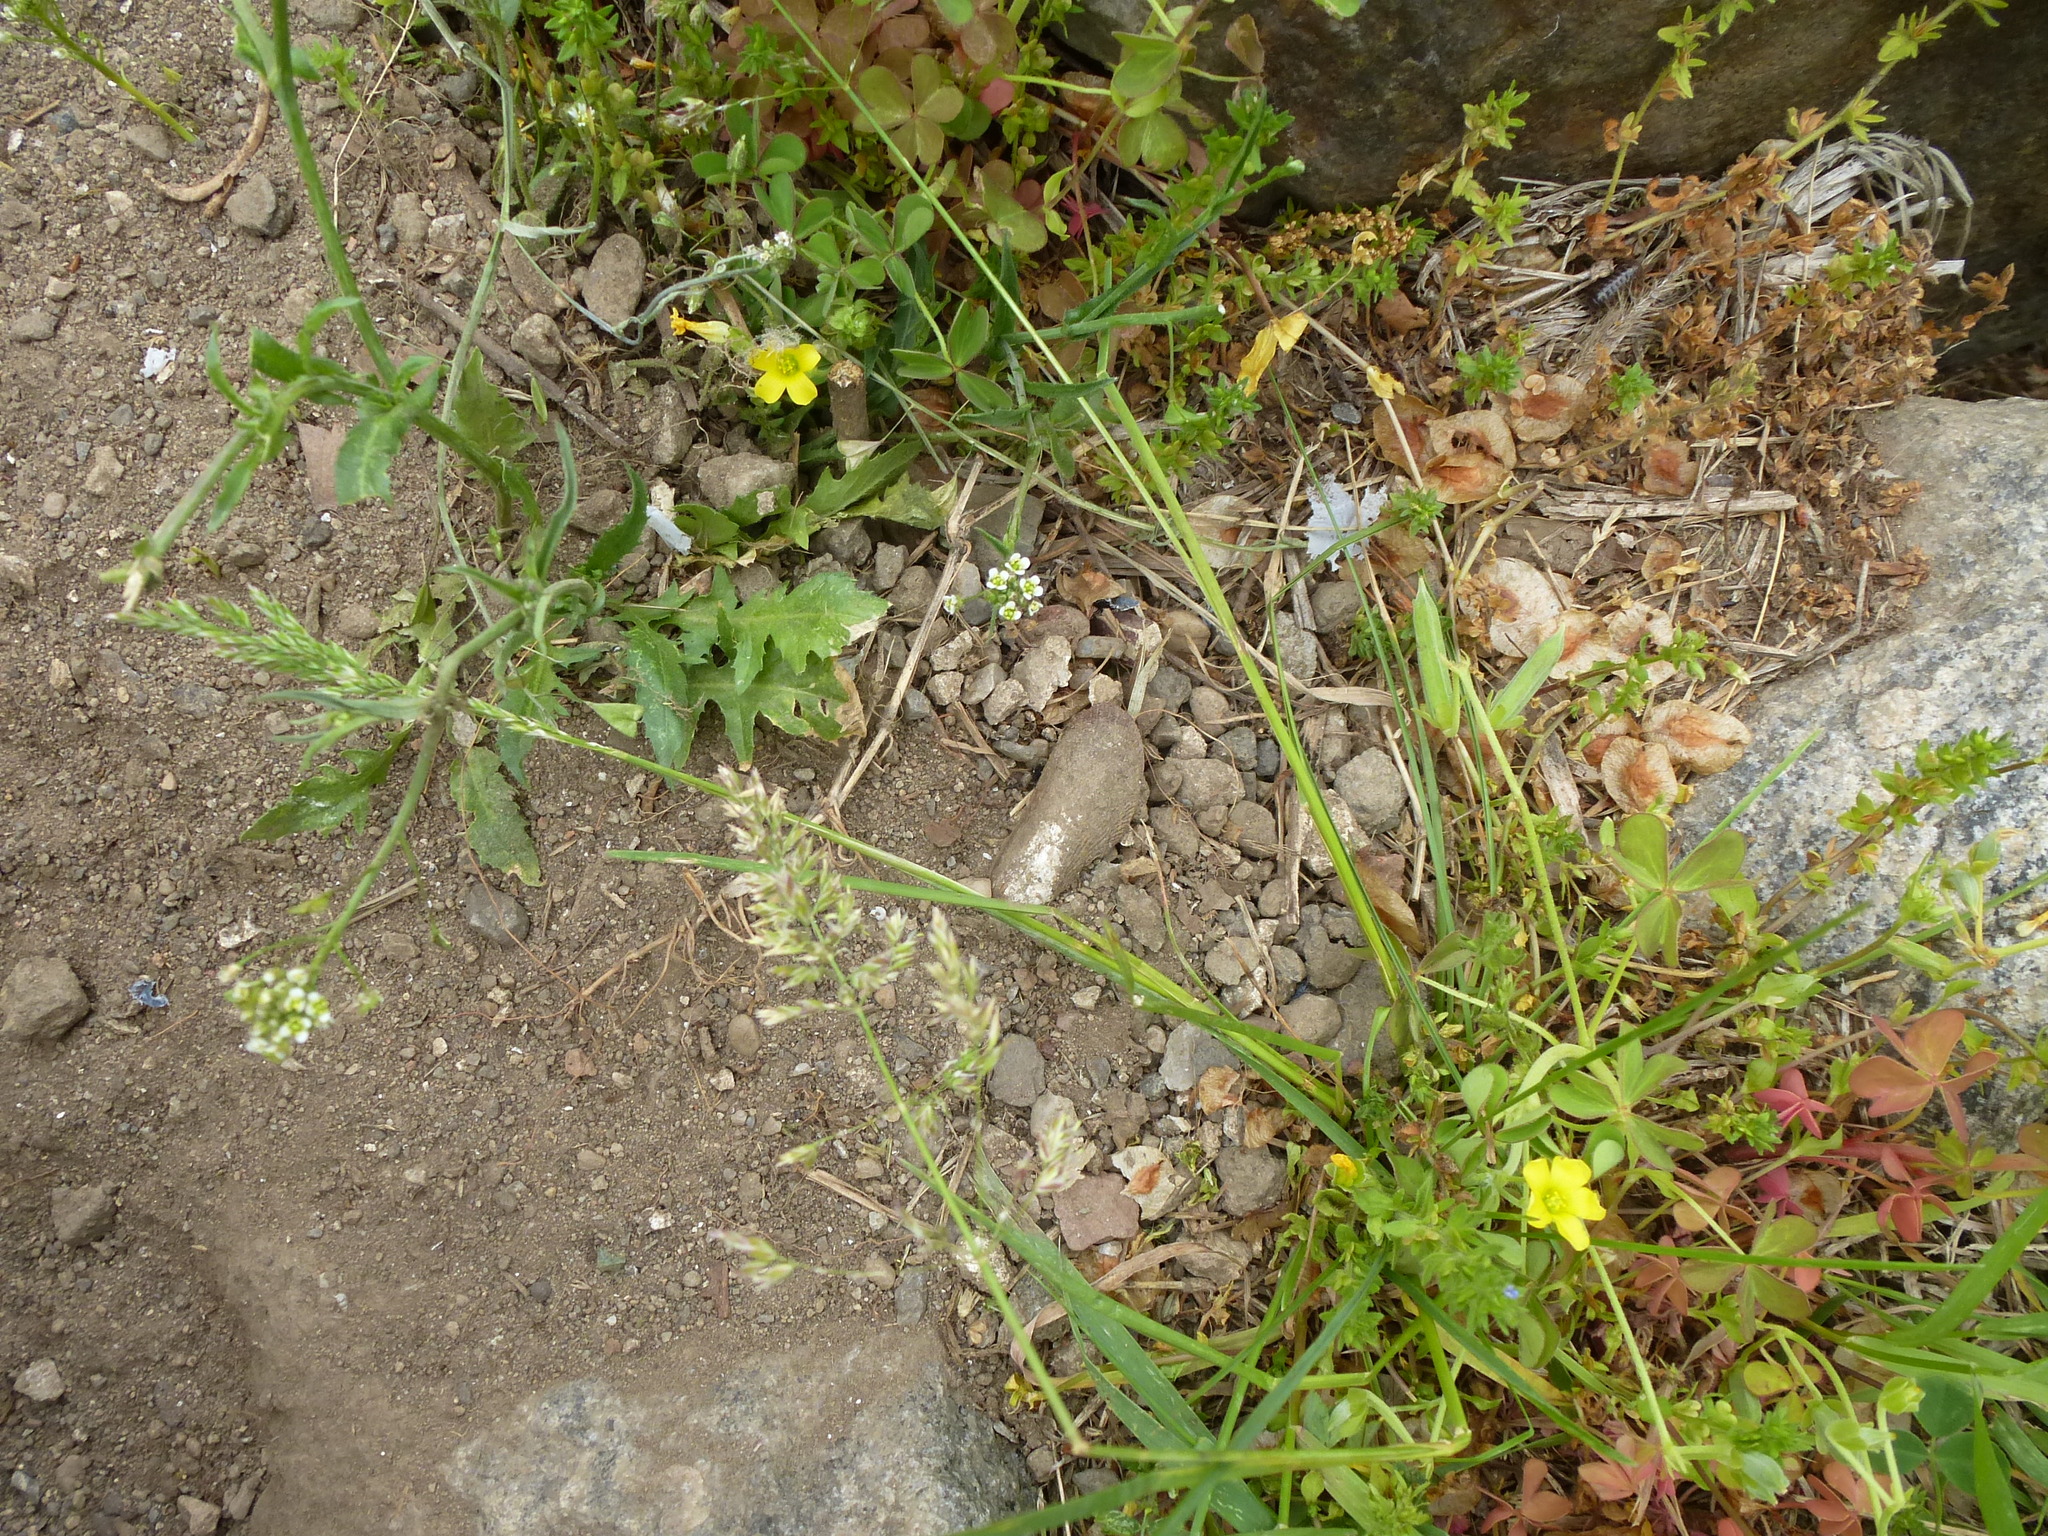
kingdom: Animalia
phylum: Mollusca
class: Bivalvia
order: Mytilida
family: Mytilidae
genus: Geukensia
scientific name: Geukensia demissa
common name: Ribbed mussel
